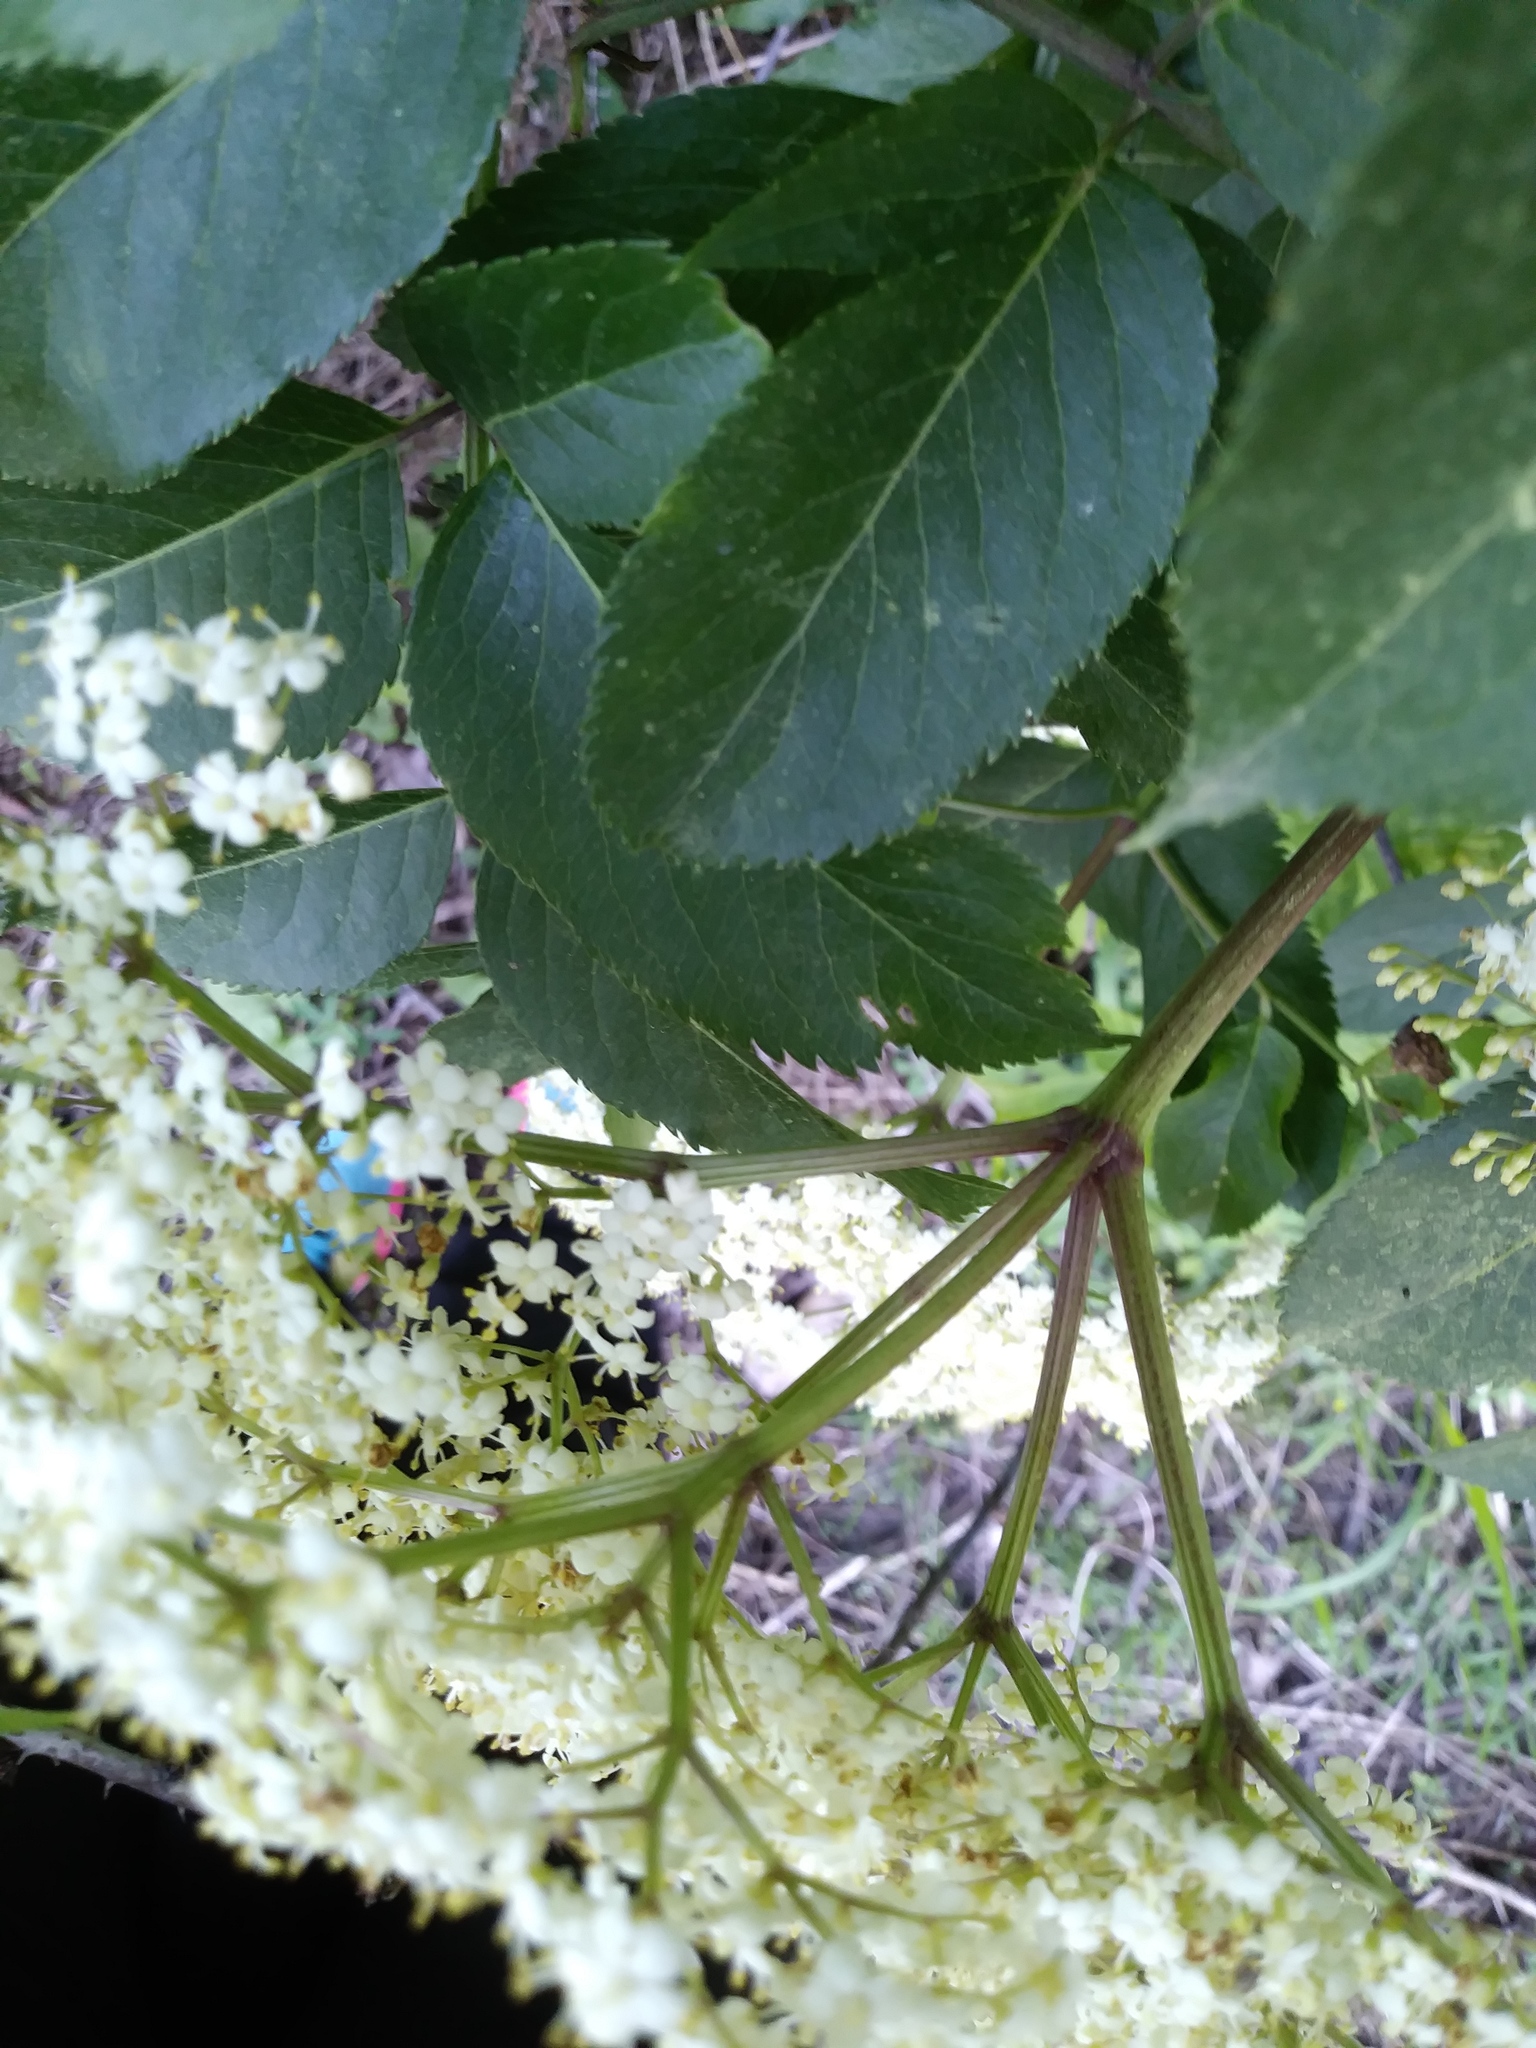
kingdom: Plantae
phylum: Tracheophyta
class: Magnoliopsida
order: Dipsacales
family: Viburnaceae
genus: Sambucus
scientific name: Sambucus canadensis
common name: American elder
